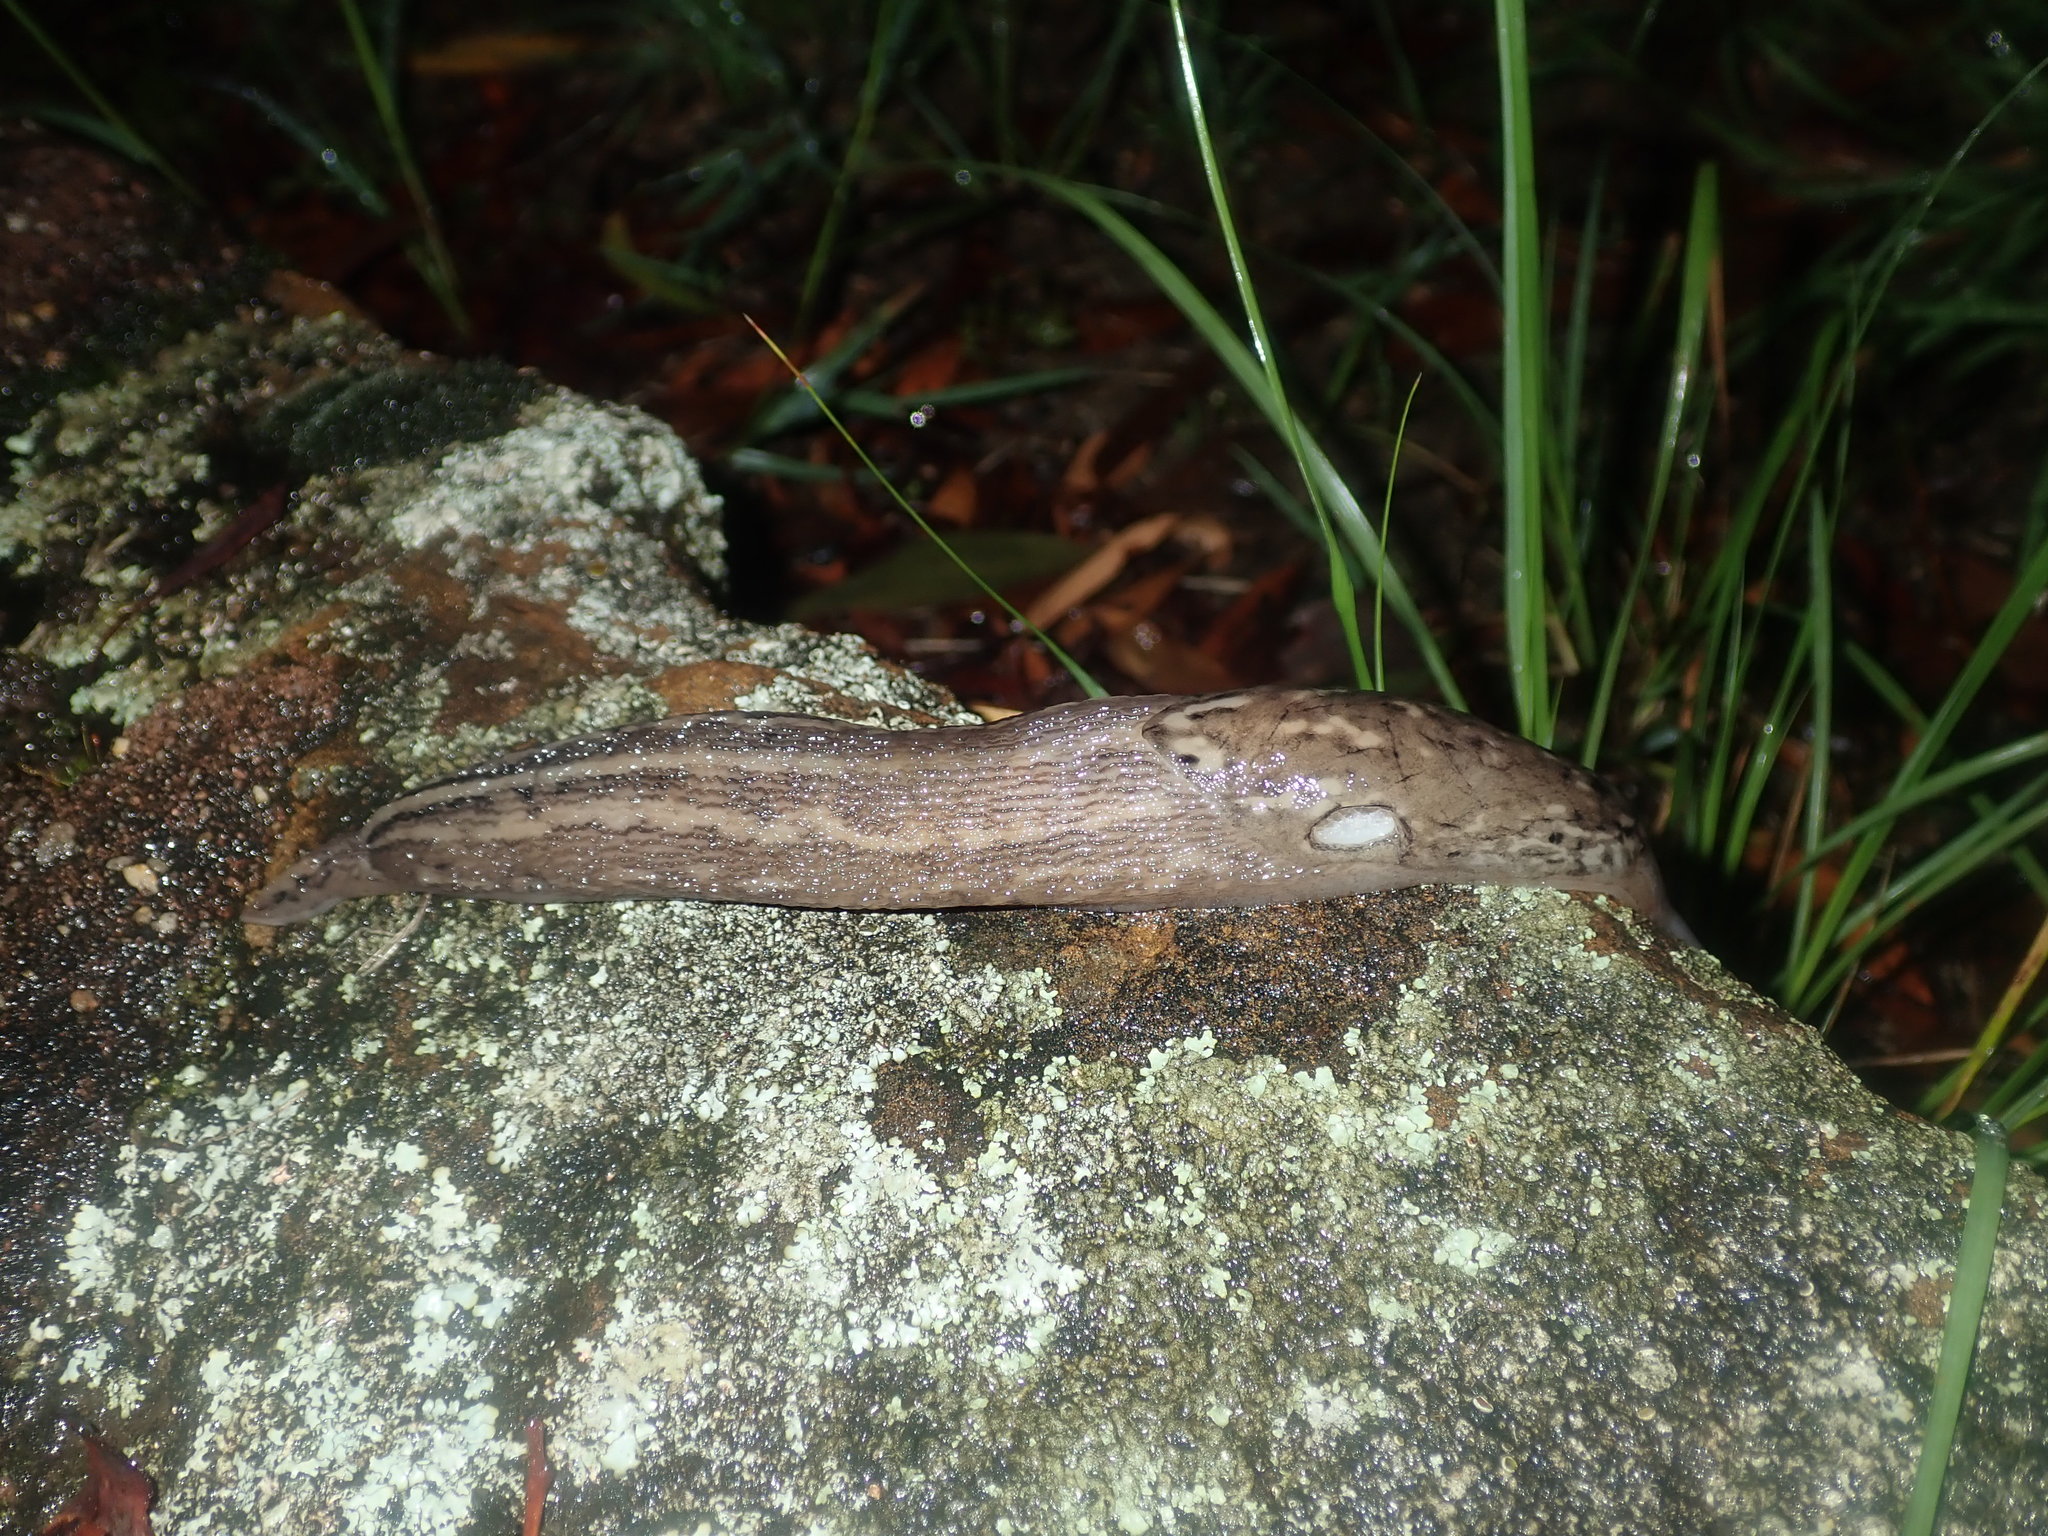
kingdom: Animalia
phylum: Mollusca
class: Gastropoda
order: Stylommatophora
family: Limacidae
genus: Limax
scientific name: Limax maximus
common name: Great grey slug
